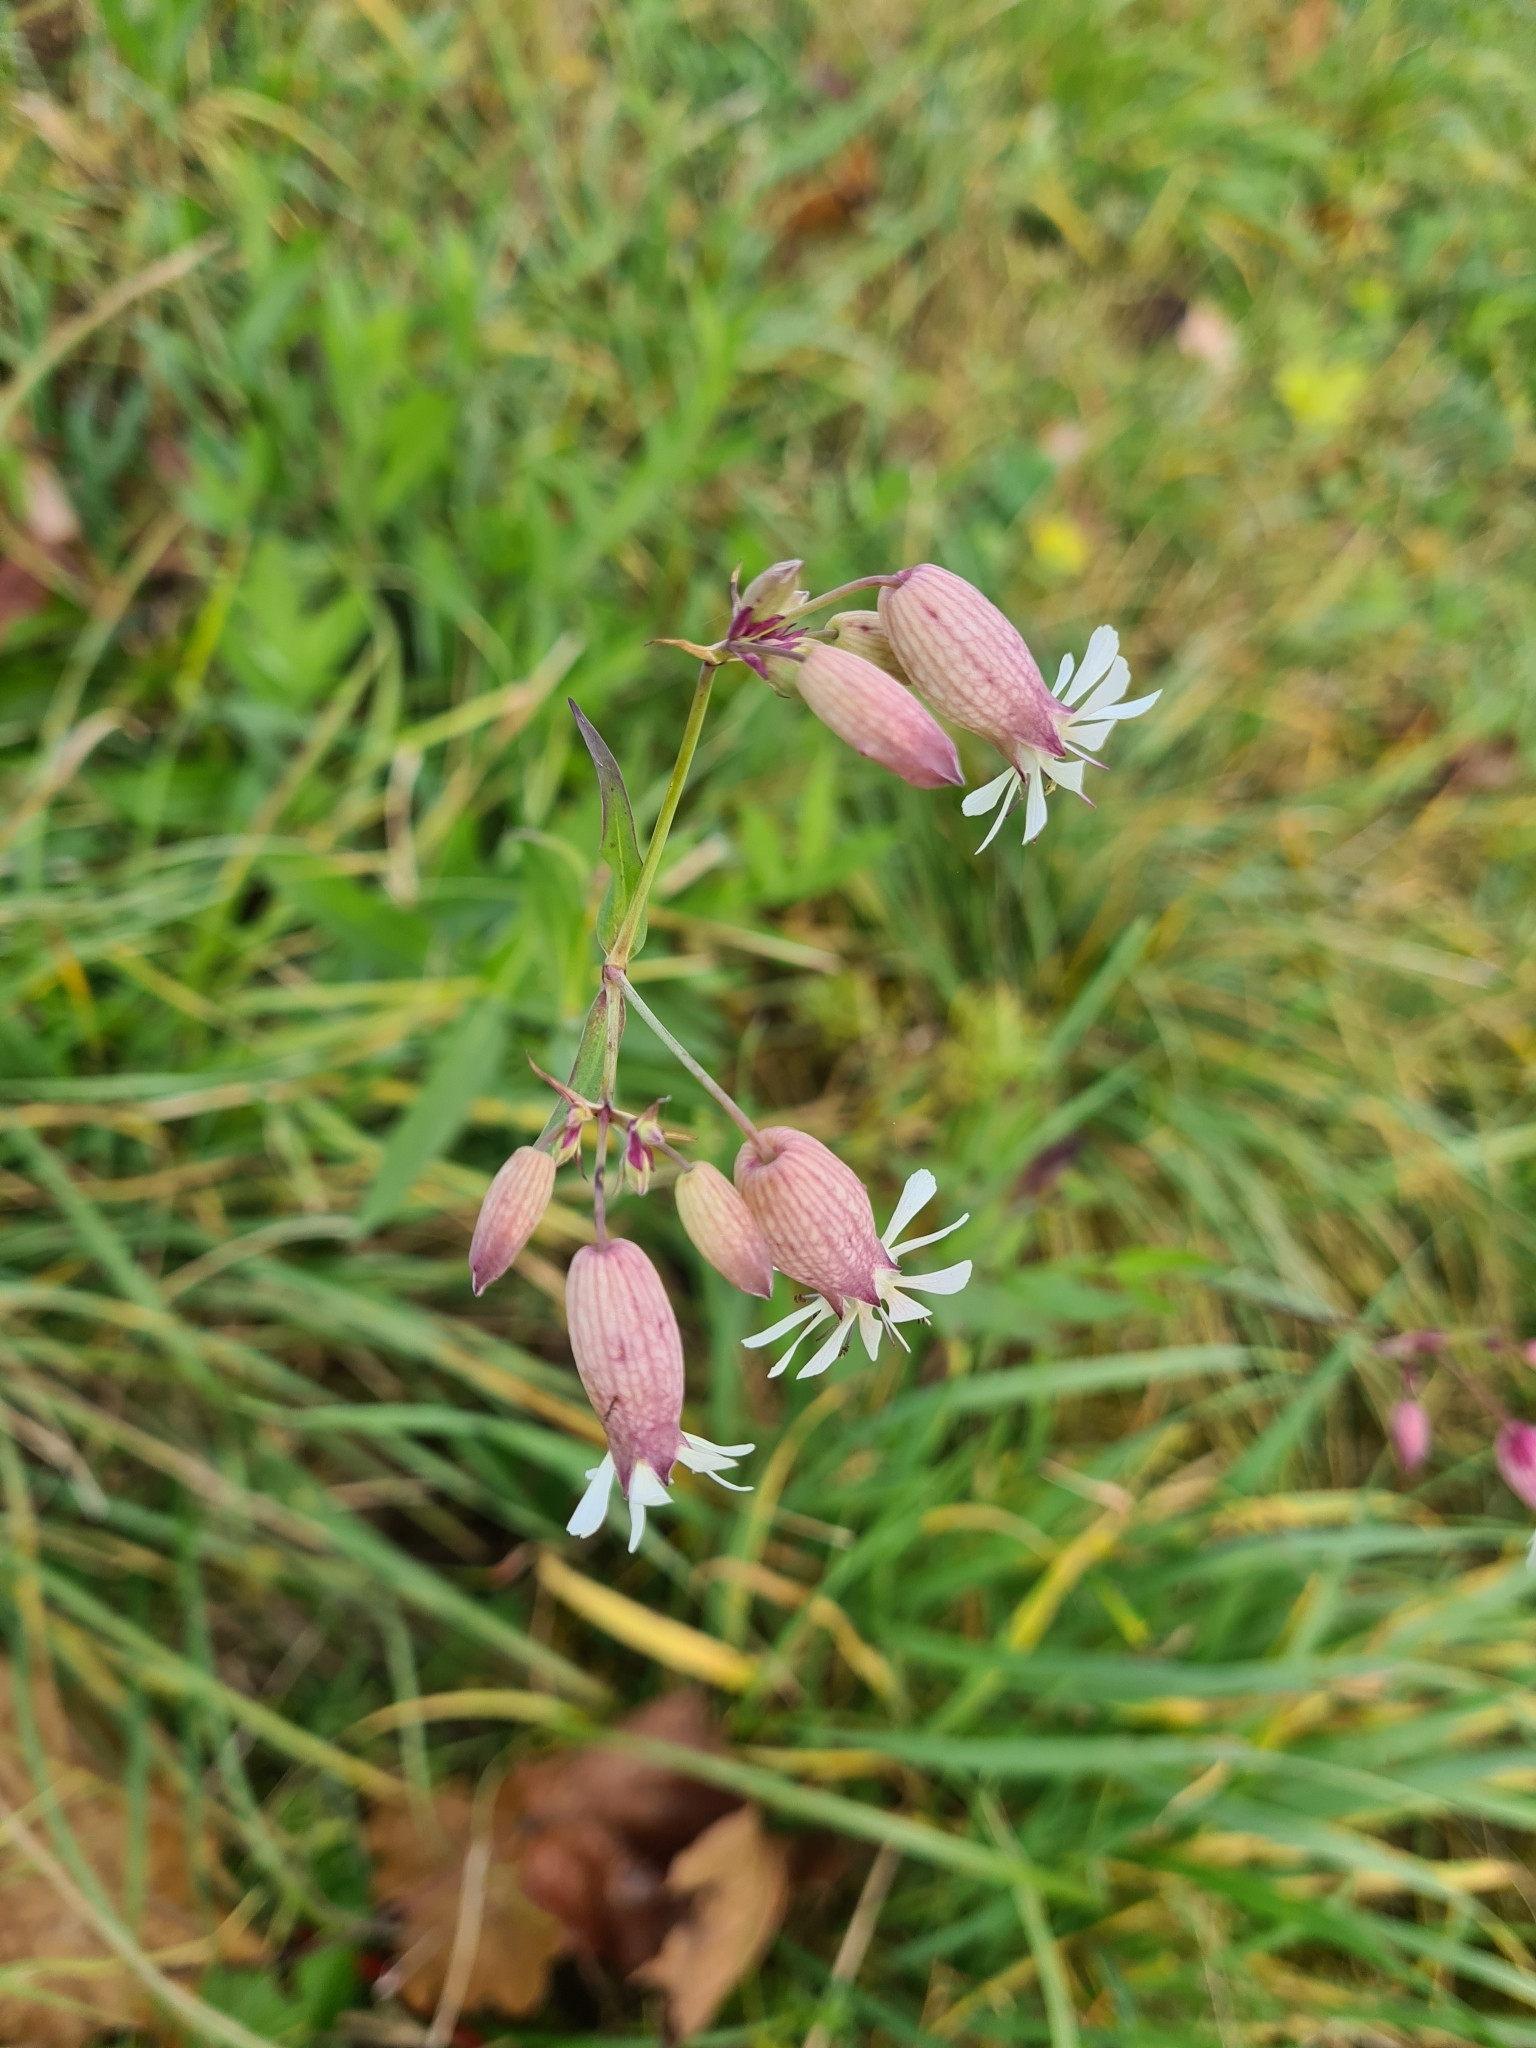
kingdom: Plantae
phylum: Tracheophyta
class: Magnoliopsida
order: Caryophyllales
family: Caryophyllaceae
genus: Silene
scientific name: Silene vulgaris
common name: Bladder campion
